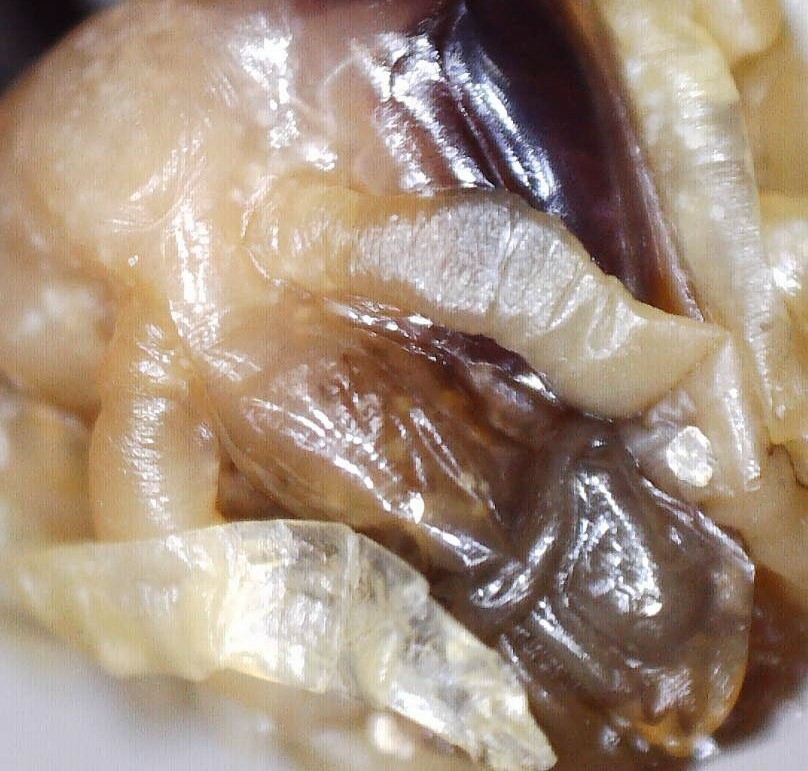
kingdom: Animalia
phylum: Arthropoda
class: Insecta
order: Hymenoptera
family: Vespidae
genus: Dolichovespula
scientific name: Dolichovespula maculata
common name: Bald-faced hornet
